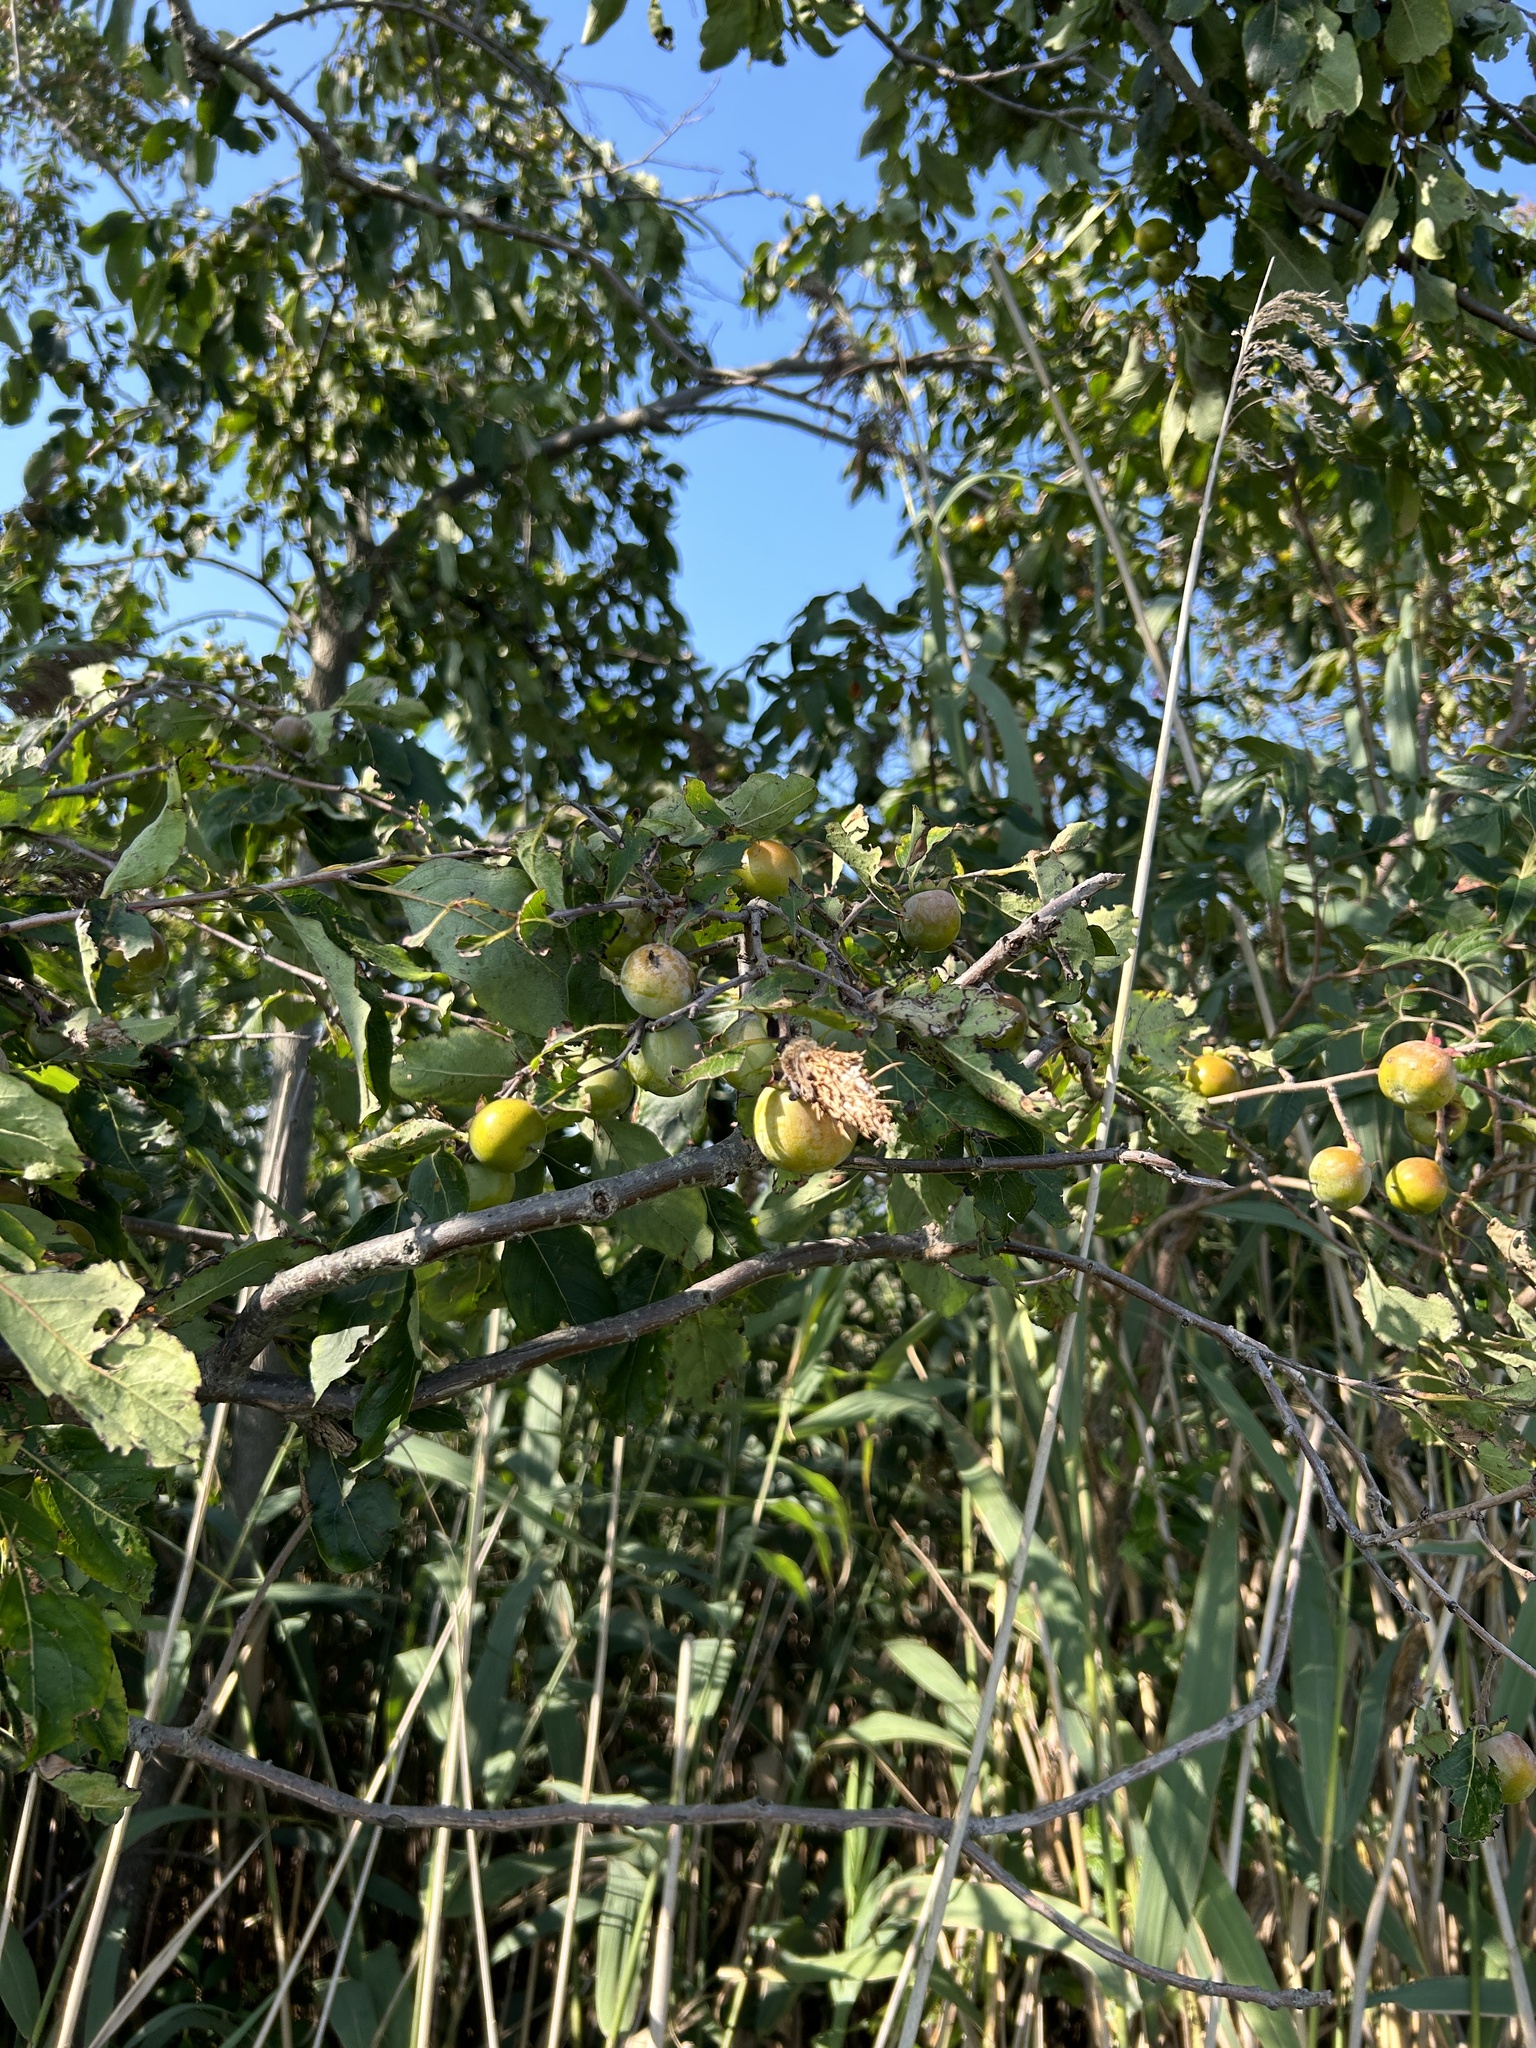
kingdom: Plantae
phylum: Tracheophyta
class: Magnoliopsida
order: Ericales
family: Ebenaceae
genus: Diospyros
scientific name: Diospyros virginiana
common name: Persimmon
